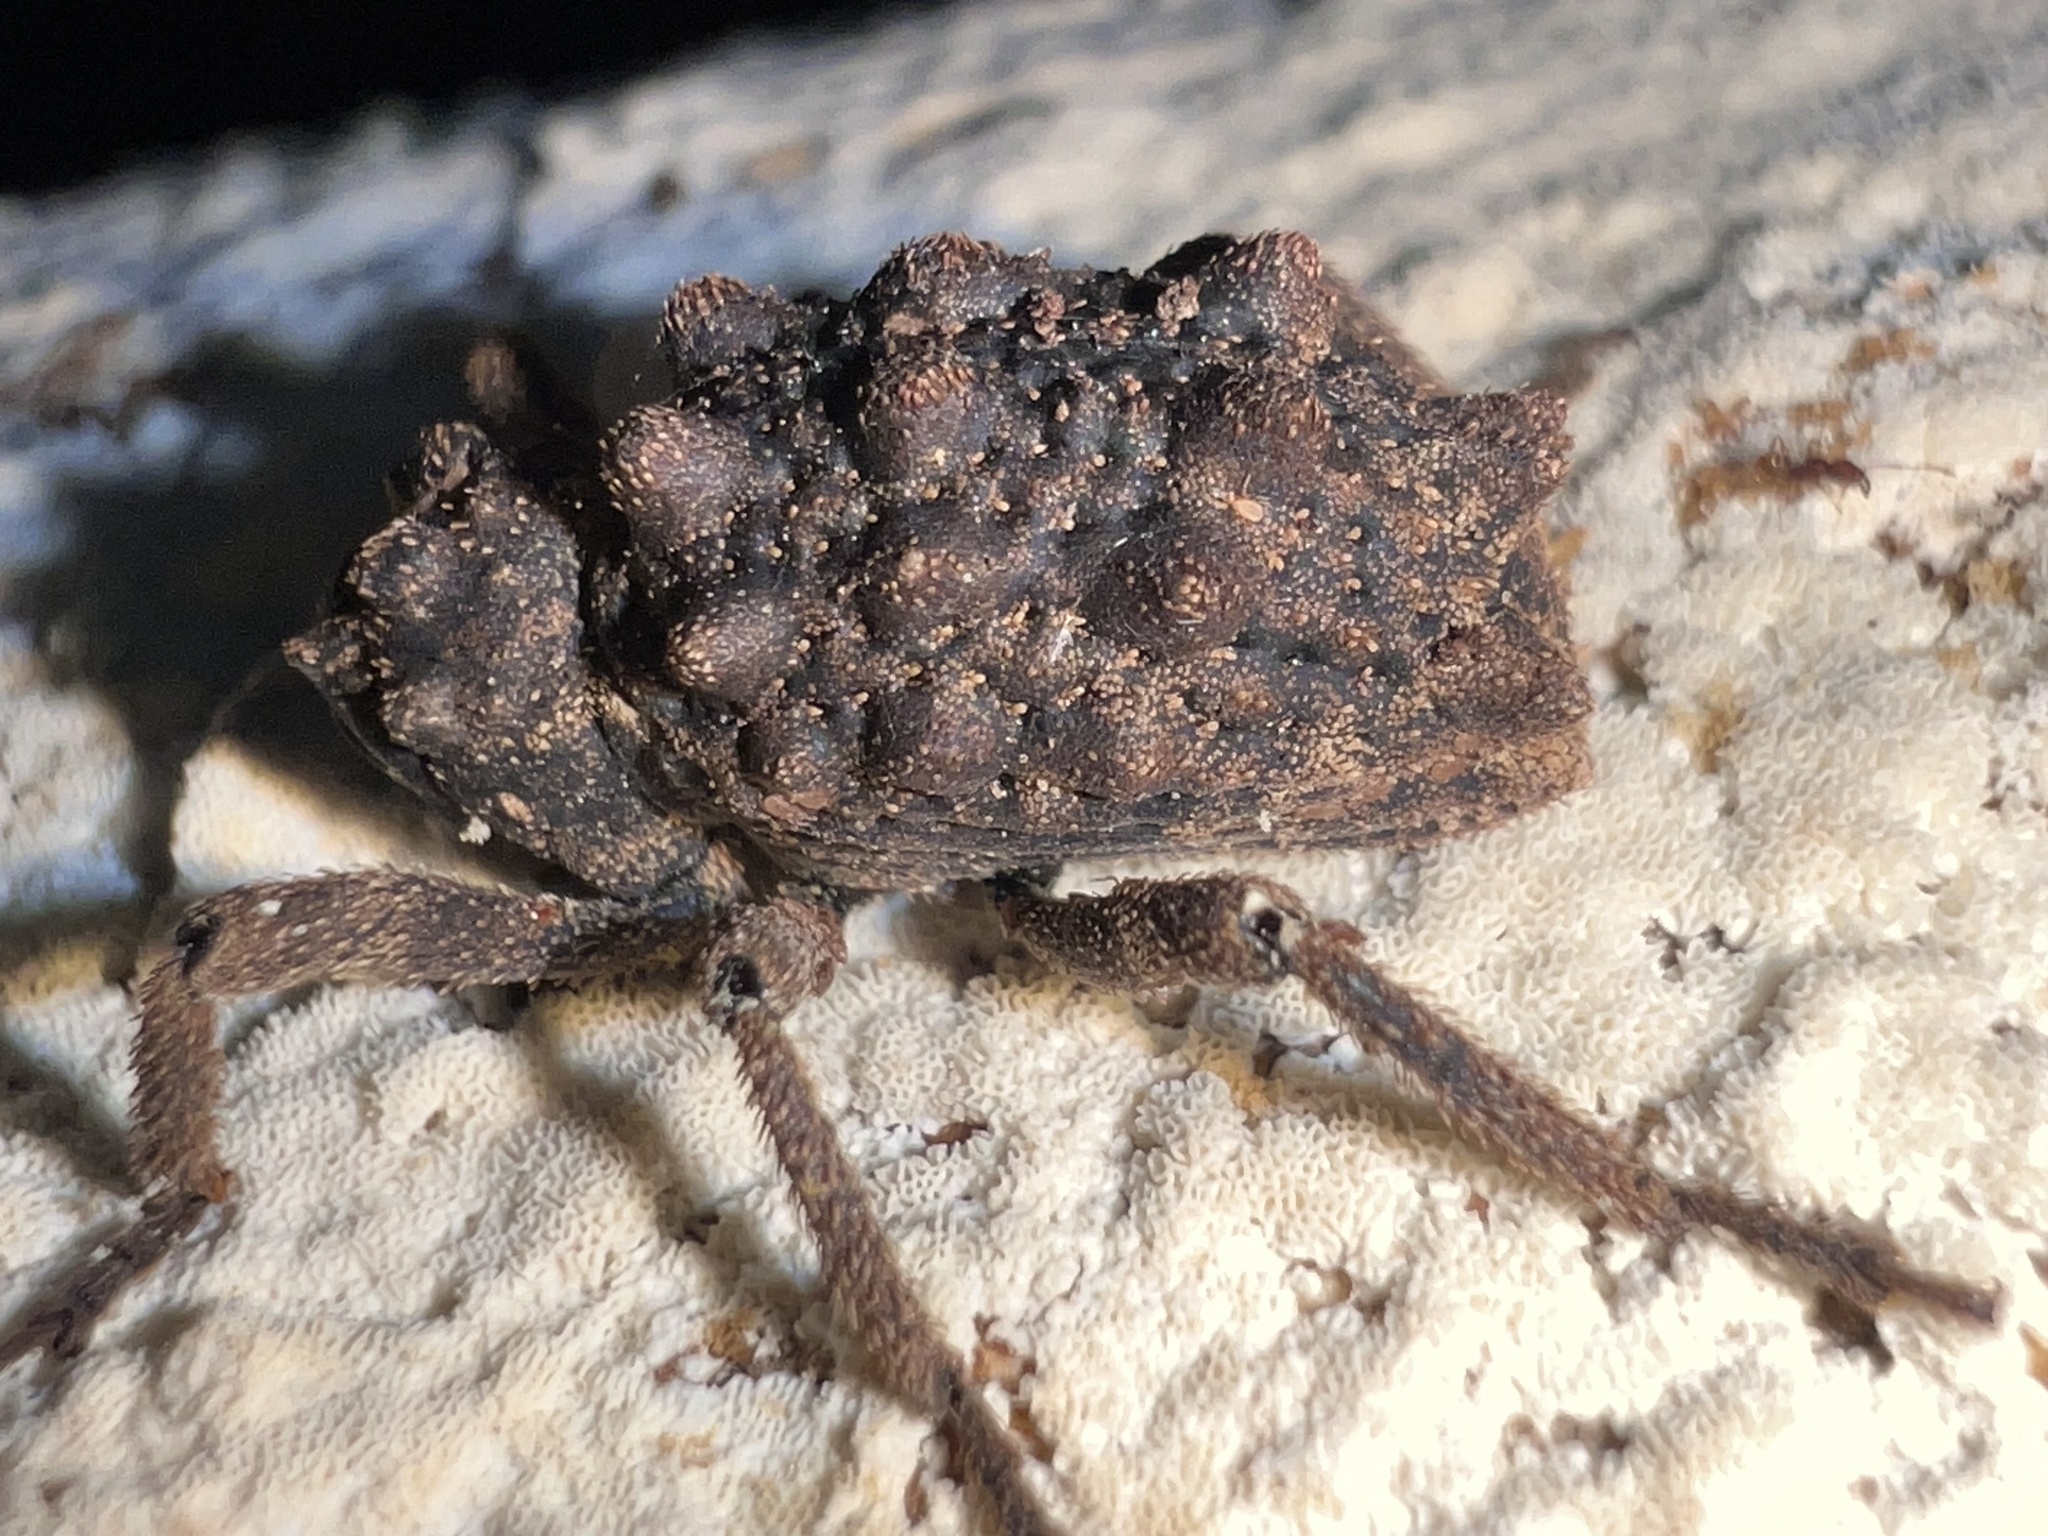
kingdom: Animalia
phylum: Arthropoda
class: Insecta
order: Coleoptera
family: Curculionidae
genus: Poropterus
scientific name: Poropterus intermedius
